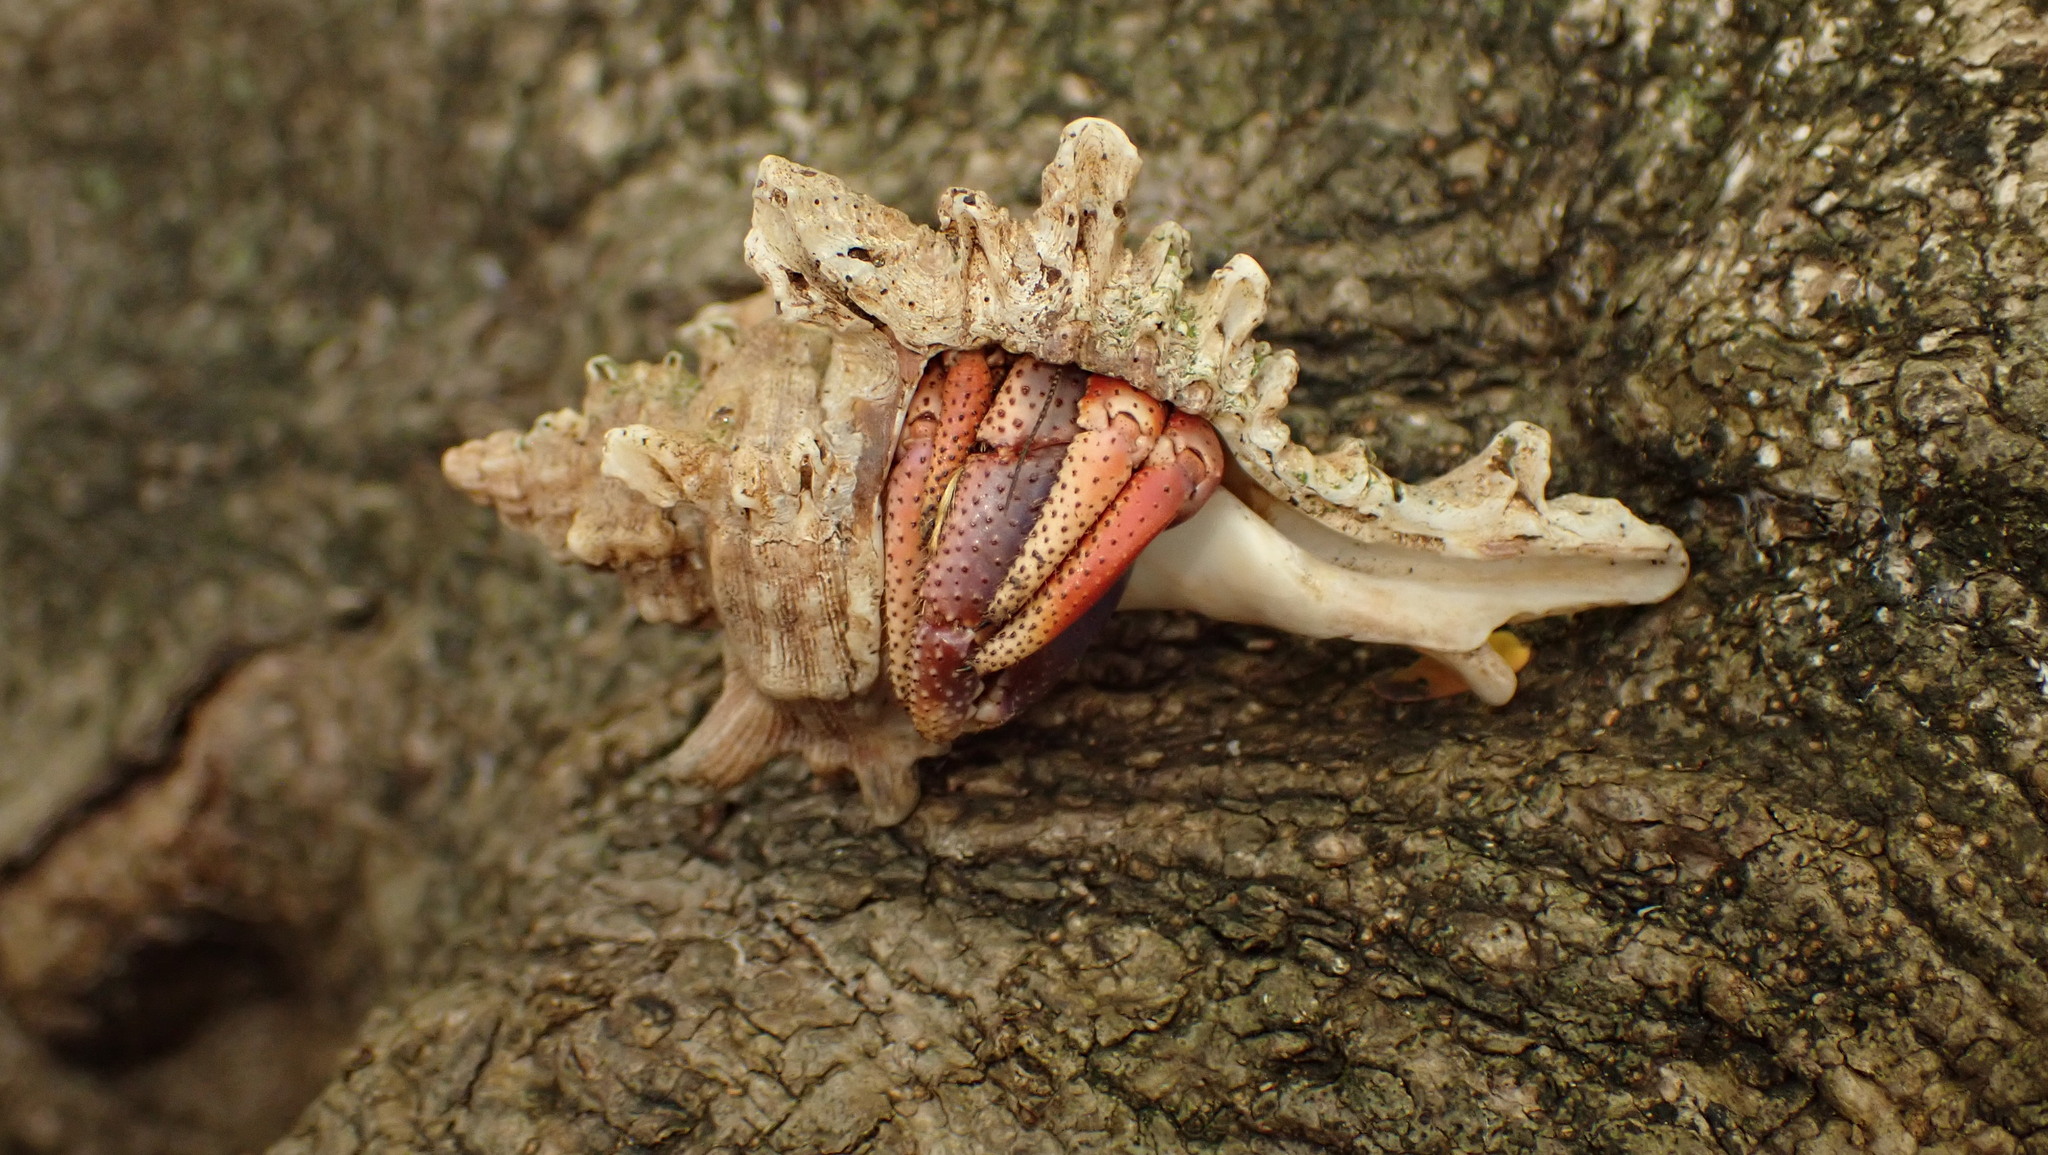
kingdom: Animalia
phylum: Arthropoda
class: Malacostraca
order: Decapoda
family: Coenobitidae
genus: Coenobita
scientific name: Coenobita clypeatus
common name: Caribbean hermit crab
